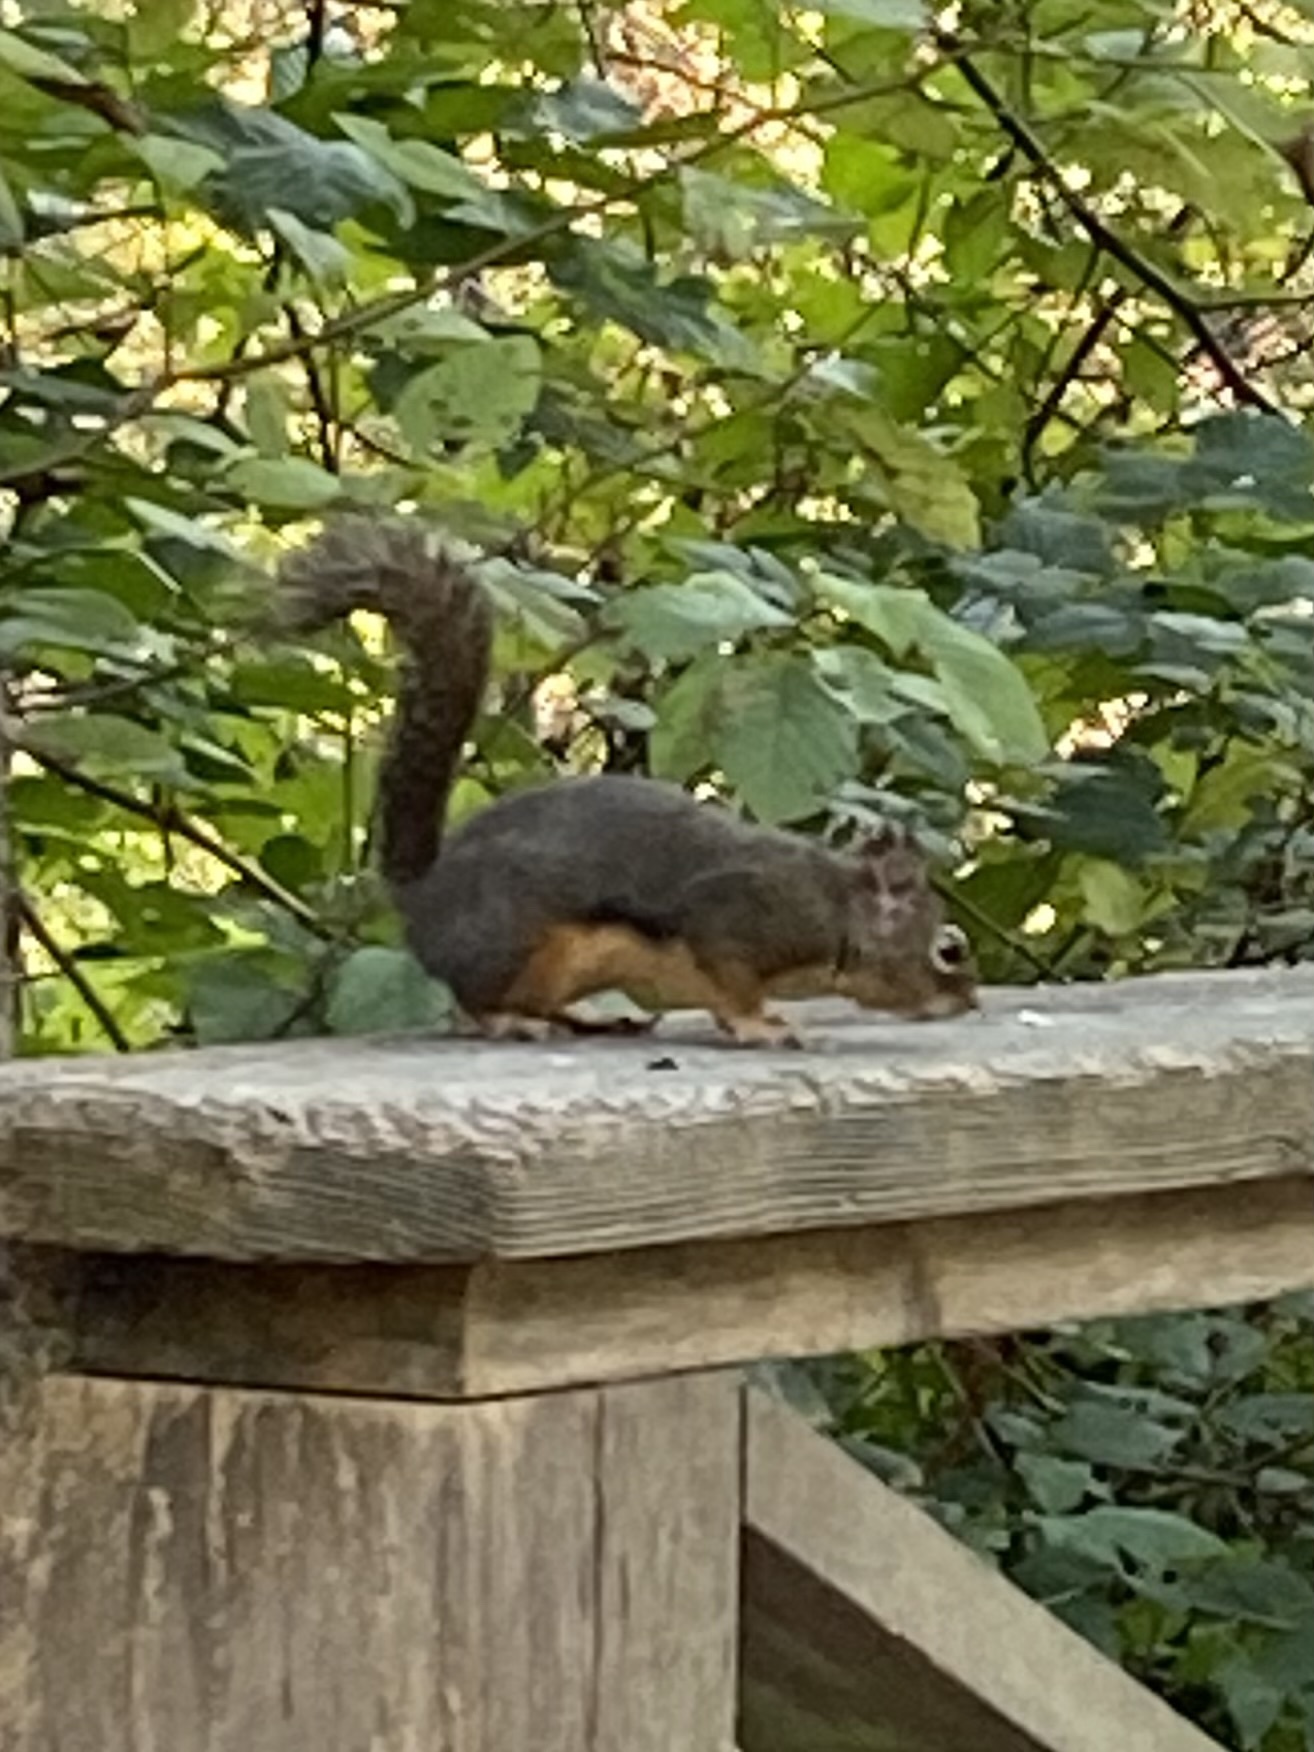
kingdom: Animalia
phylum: Chordata
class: Mammalia
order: Rodentia
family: Sciuridae
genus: Tamiasciurus
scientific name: Tamiasciurus douglasii
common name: Douglas's squirrel
